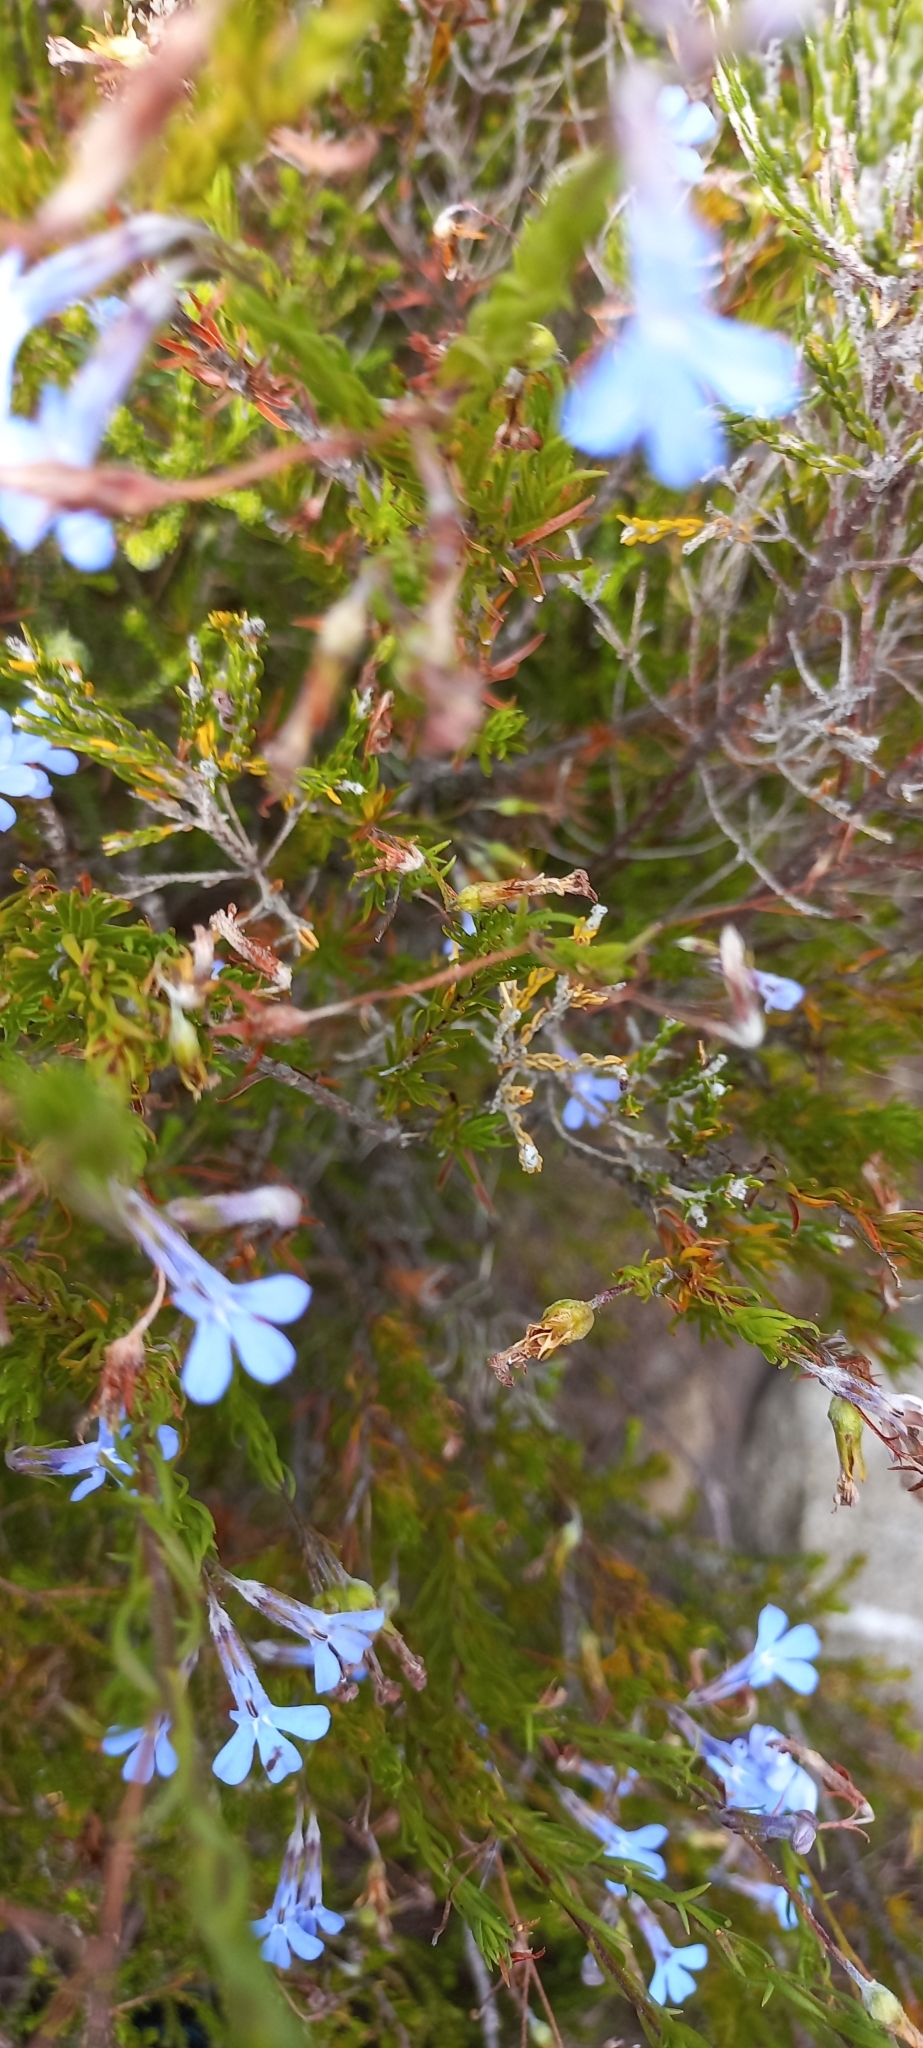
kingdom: Plantae
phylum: Tracheophyta
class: Magnoliopsida
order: Asterales
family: Campanulaceae
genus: Lobelia
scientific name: Lobelia pinifolia
